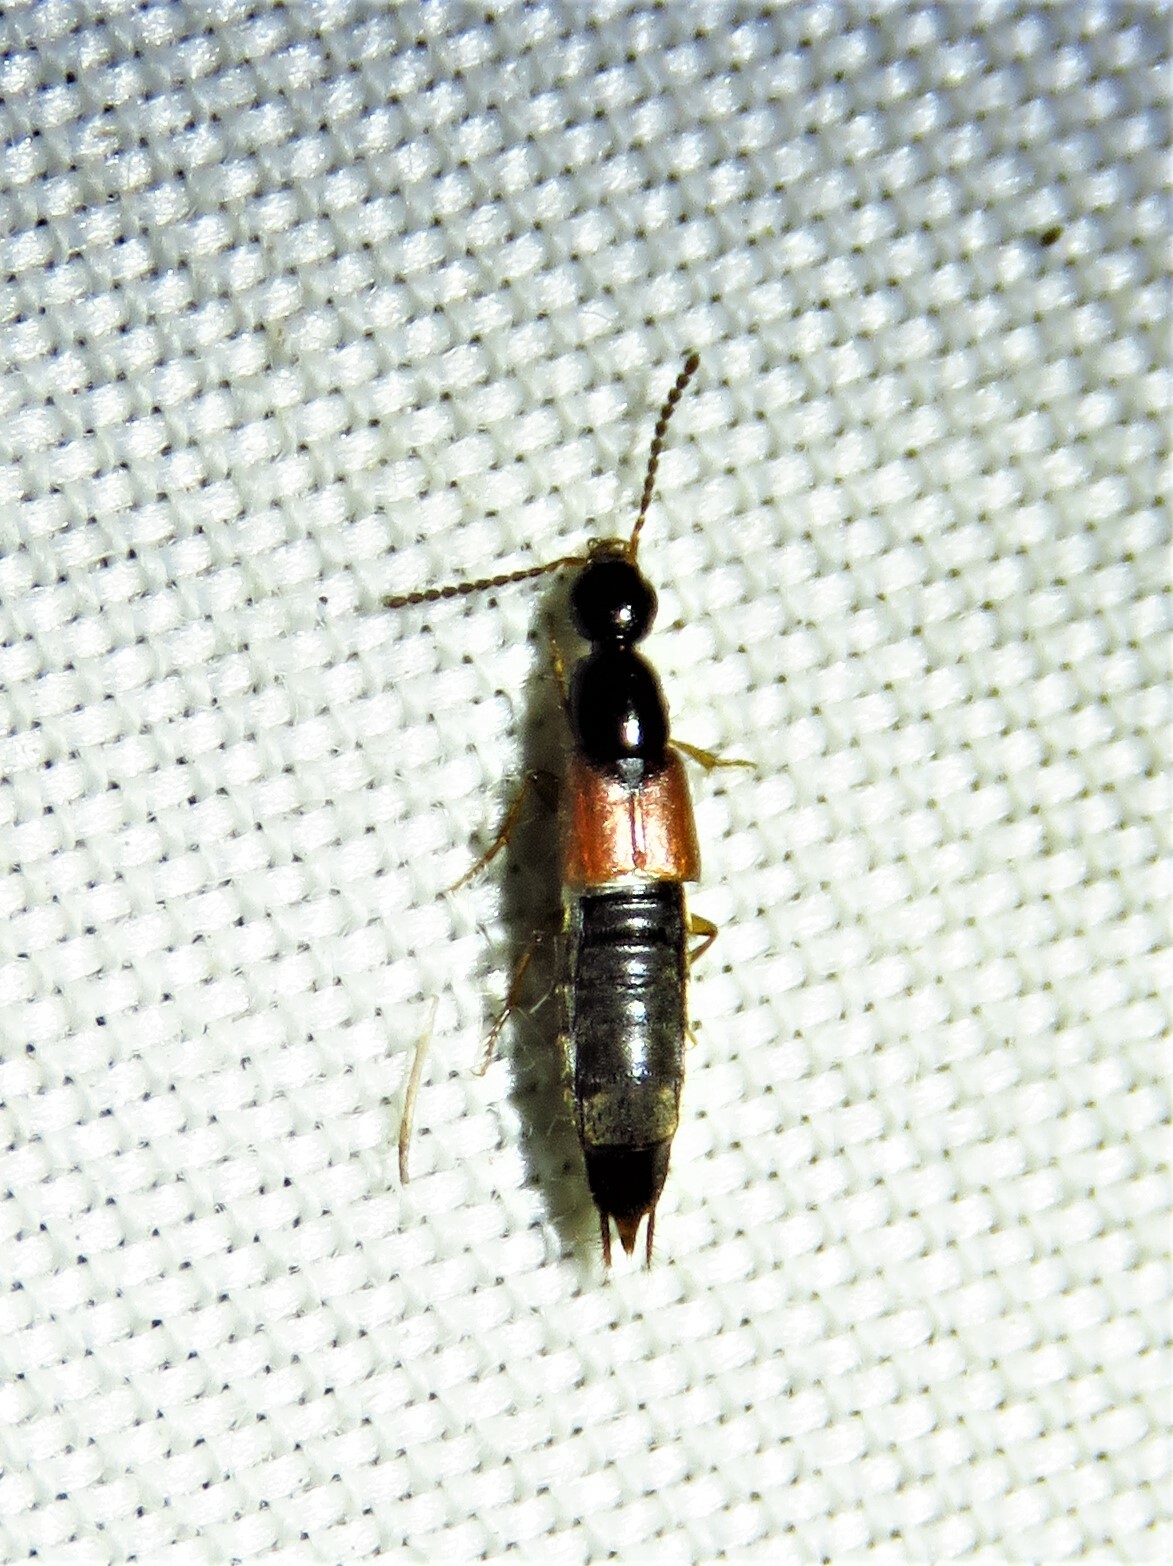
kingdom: Animalia
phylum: Arthropoda
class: Insecta
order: Coleoptera
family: Staphylinidae
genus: Philonthus
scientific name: Philonthus rufulus
